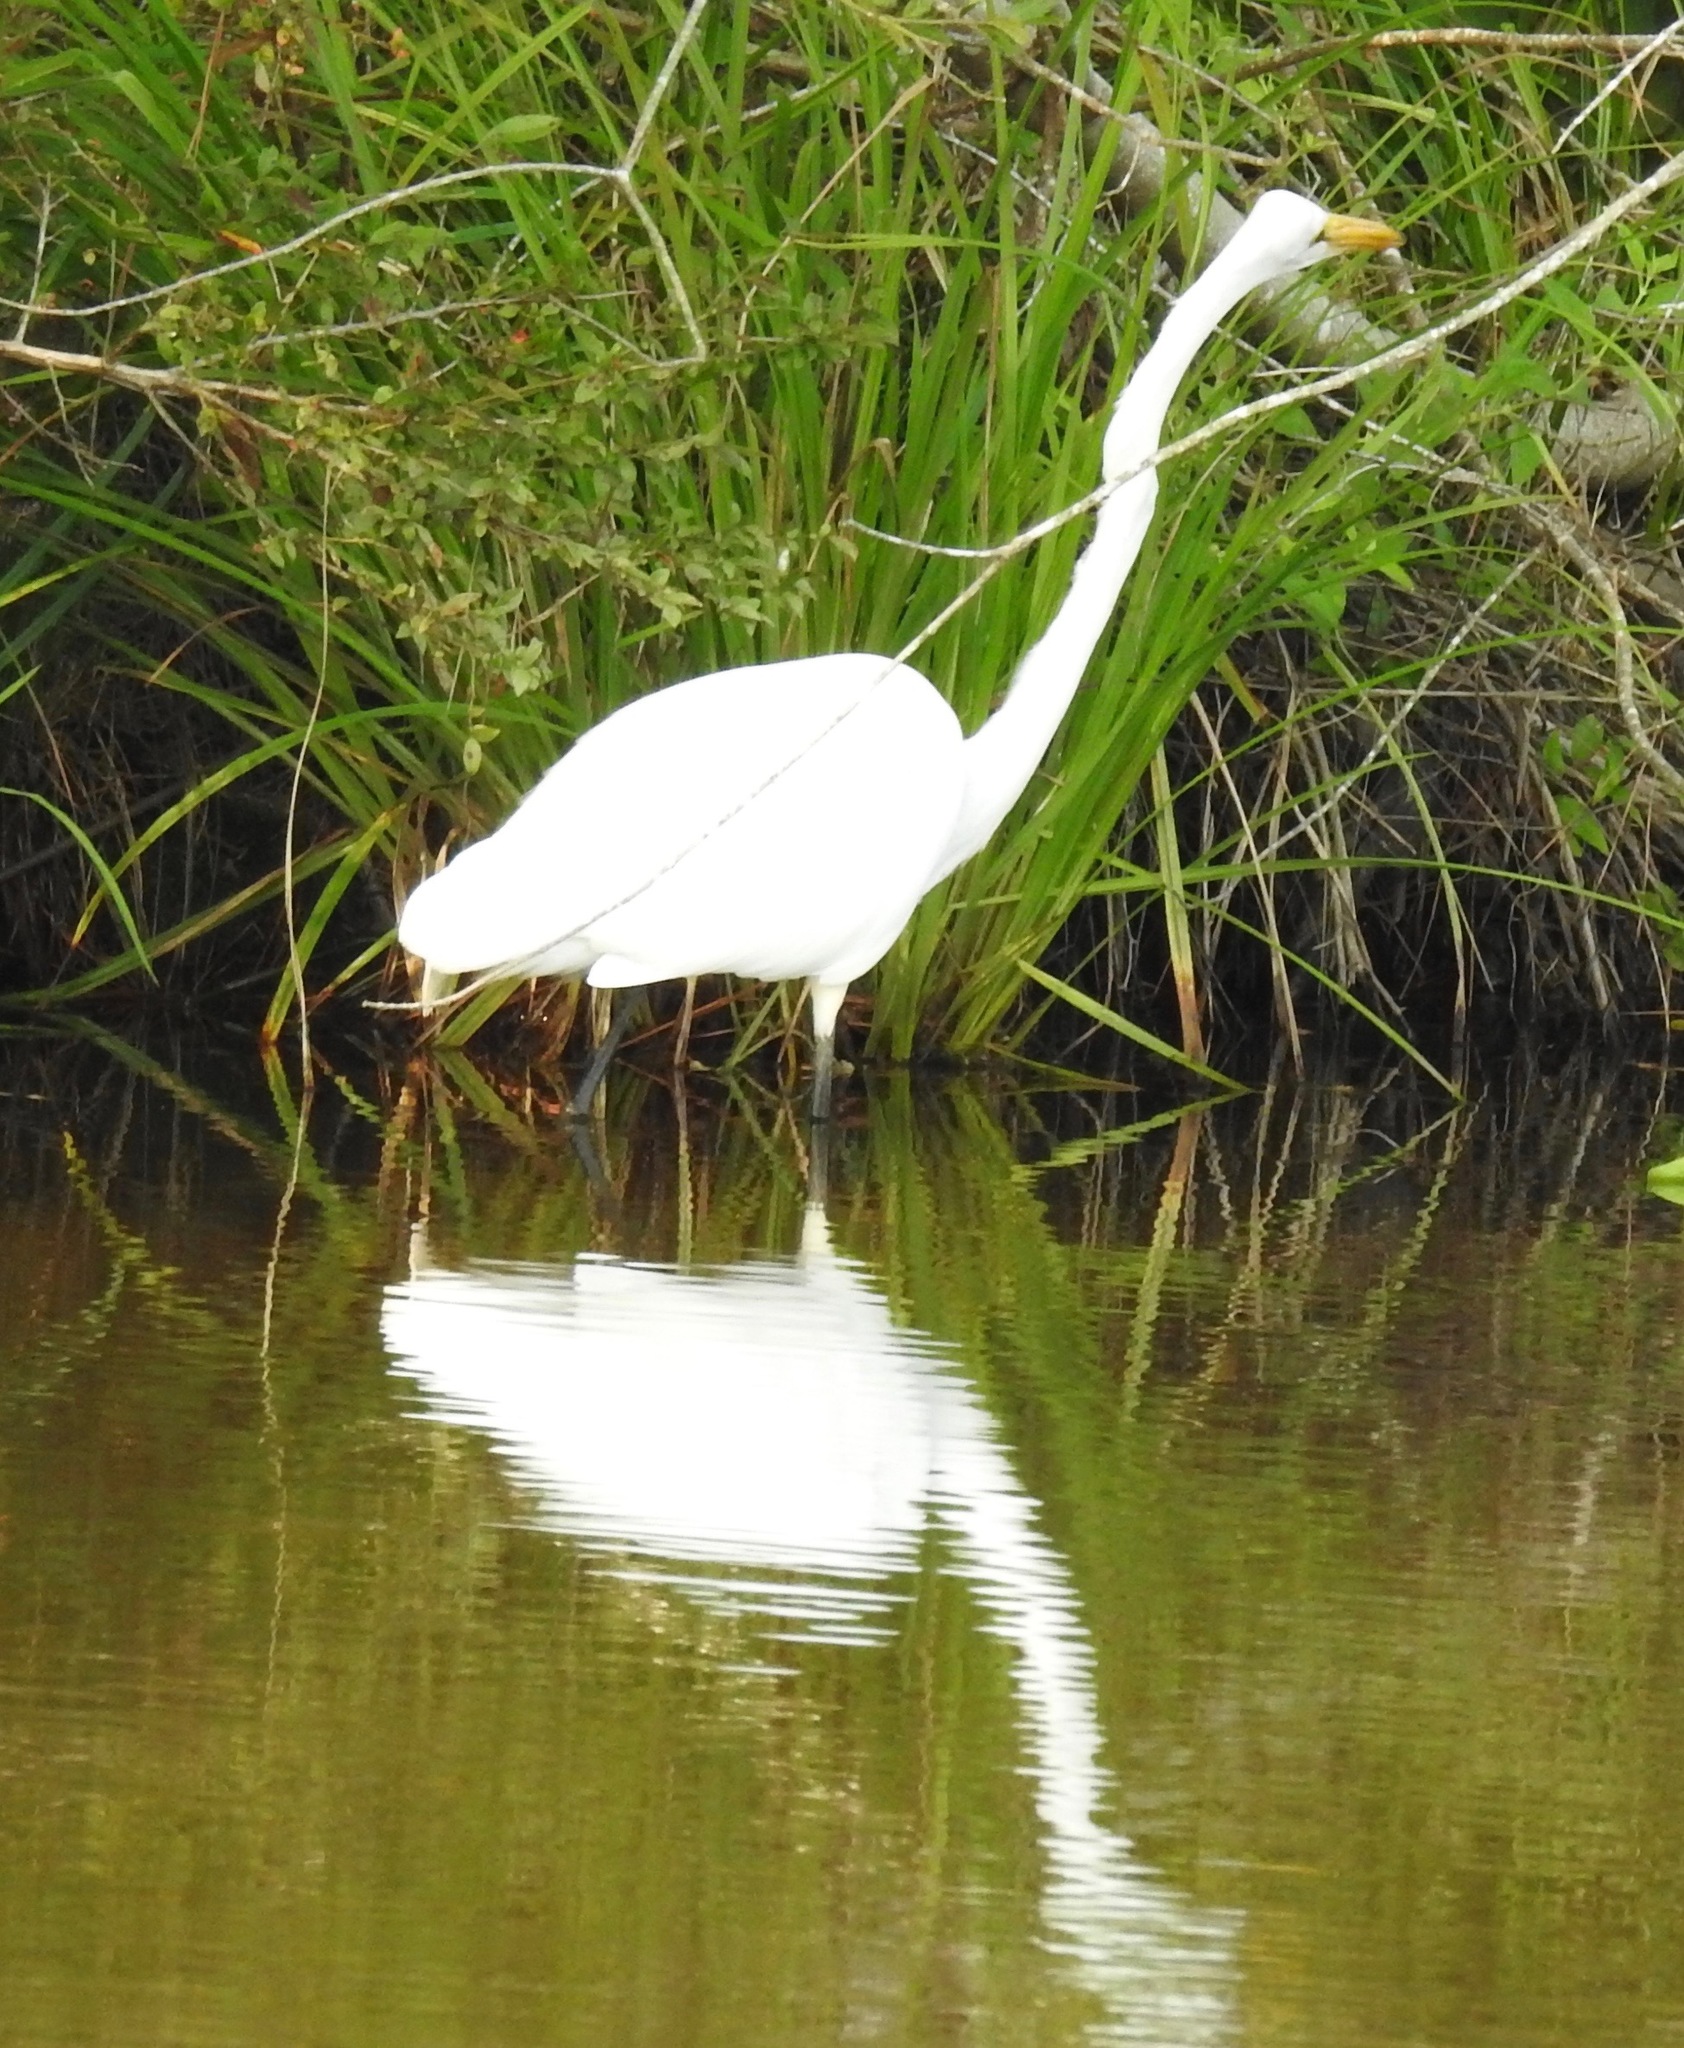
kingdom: Animalia
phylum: Chordata
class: Aves
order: Pelecaniformes
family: Ardeidae
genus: Ardea
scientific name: Ardea alba
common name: Great egret
